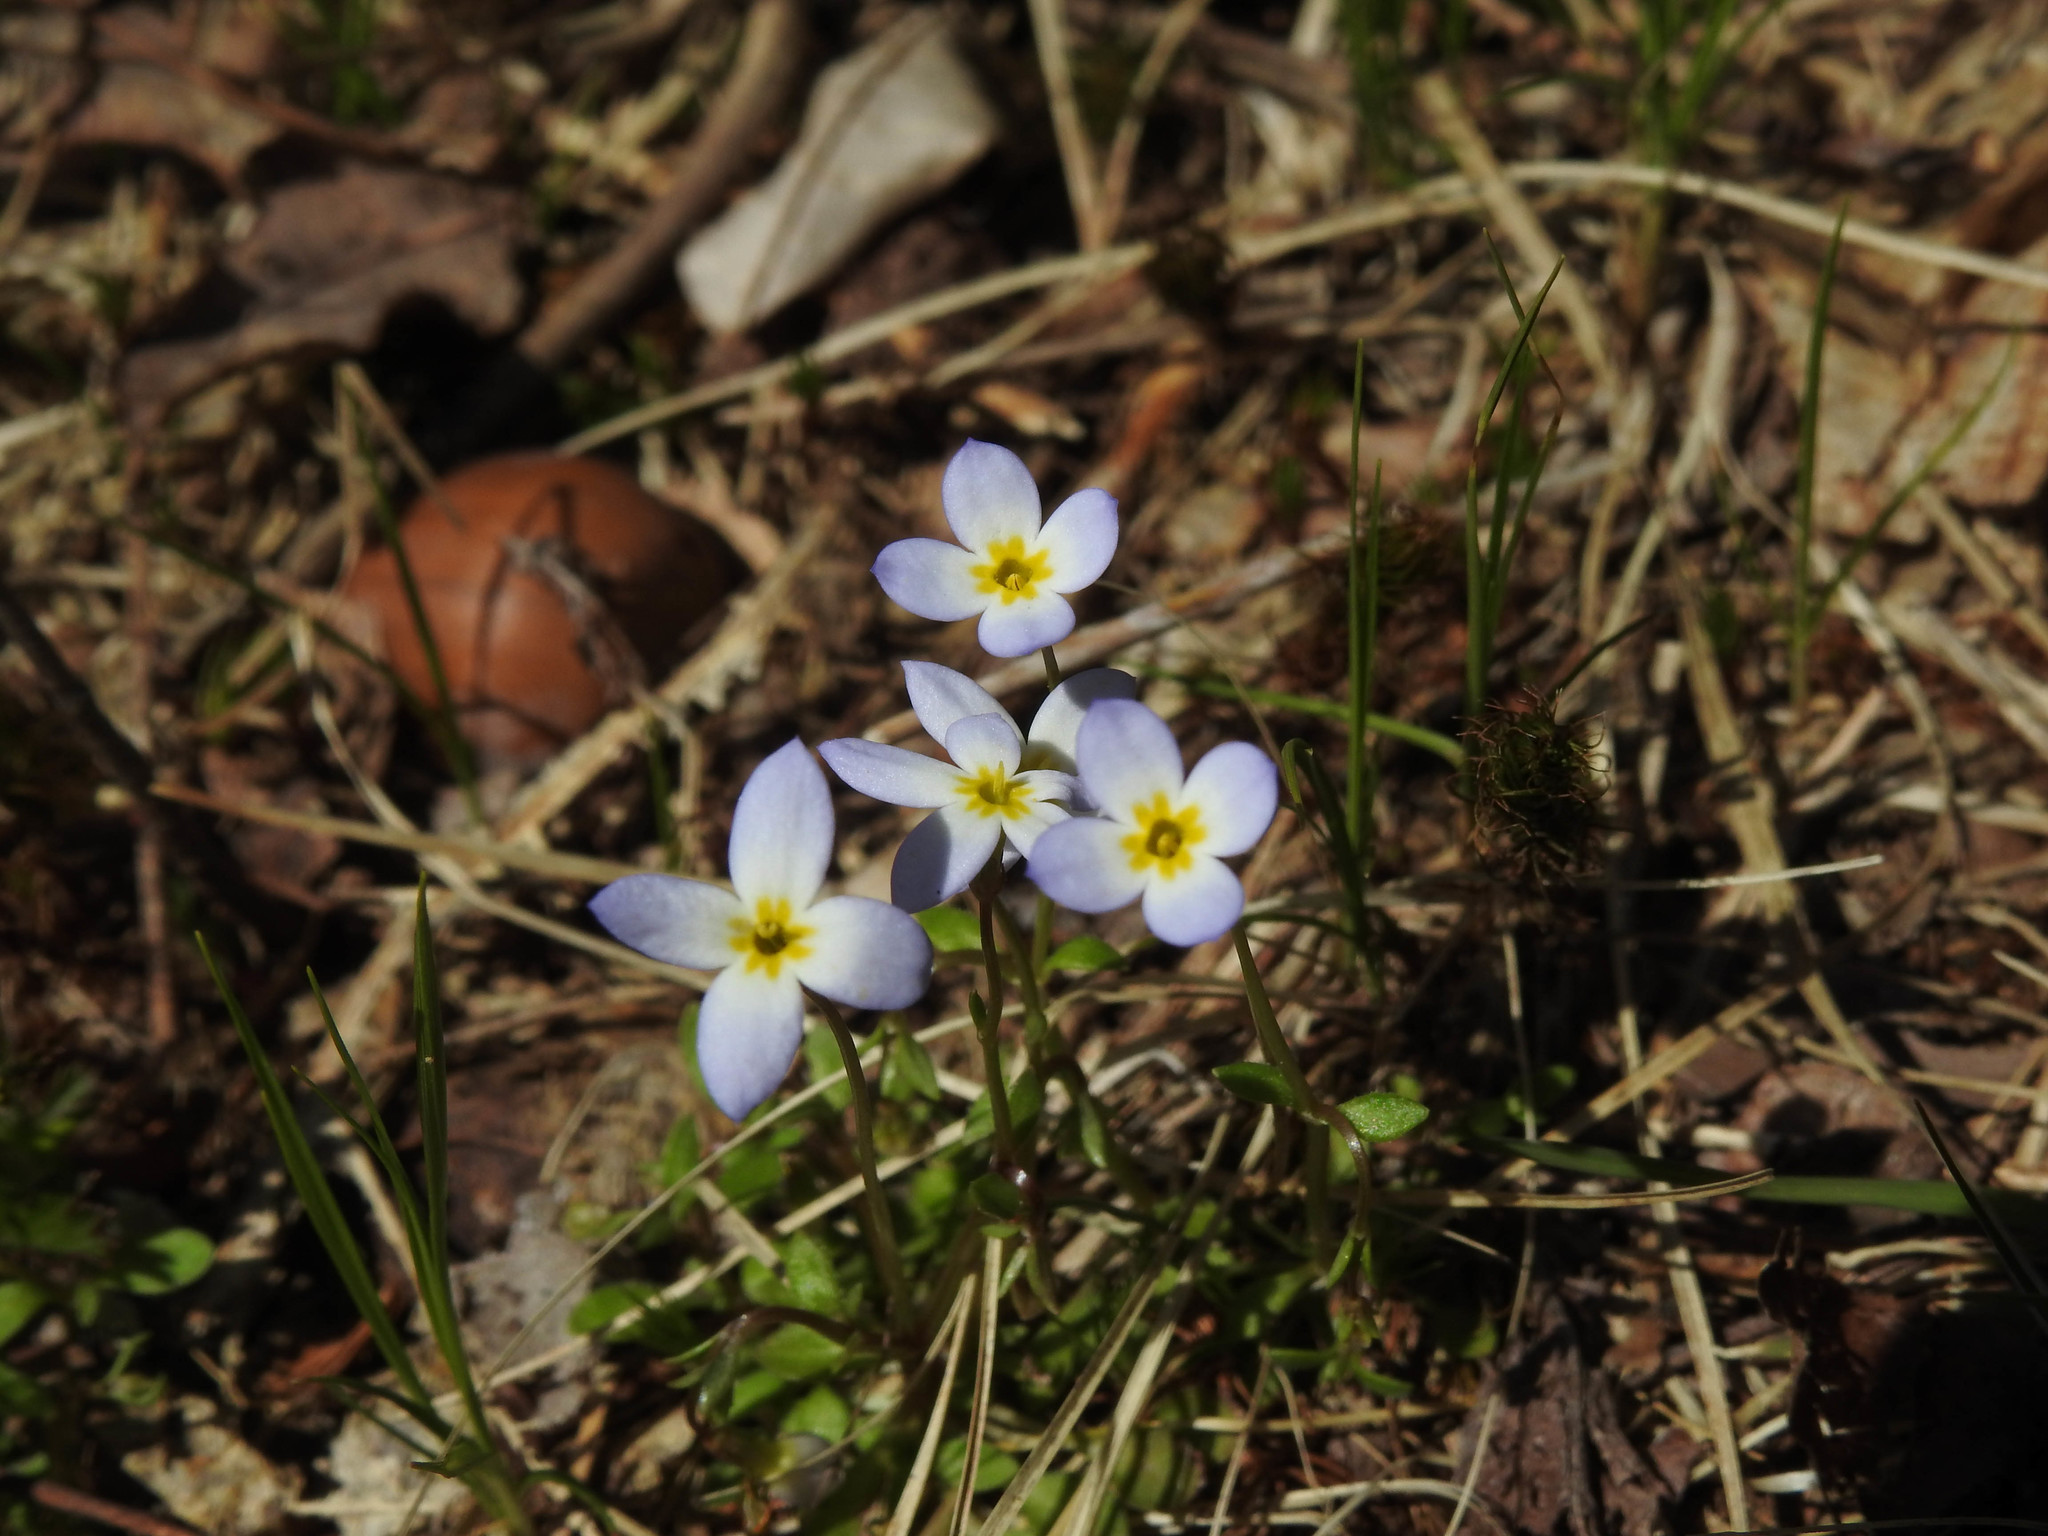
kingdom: Plantae
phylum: Tracheophyta
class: Magnoliopsida
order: Gentianales
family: Rubiaceae
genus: Houstonia
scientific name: Houstonia caerulea
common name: Bluets
